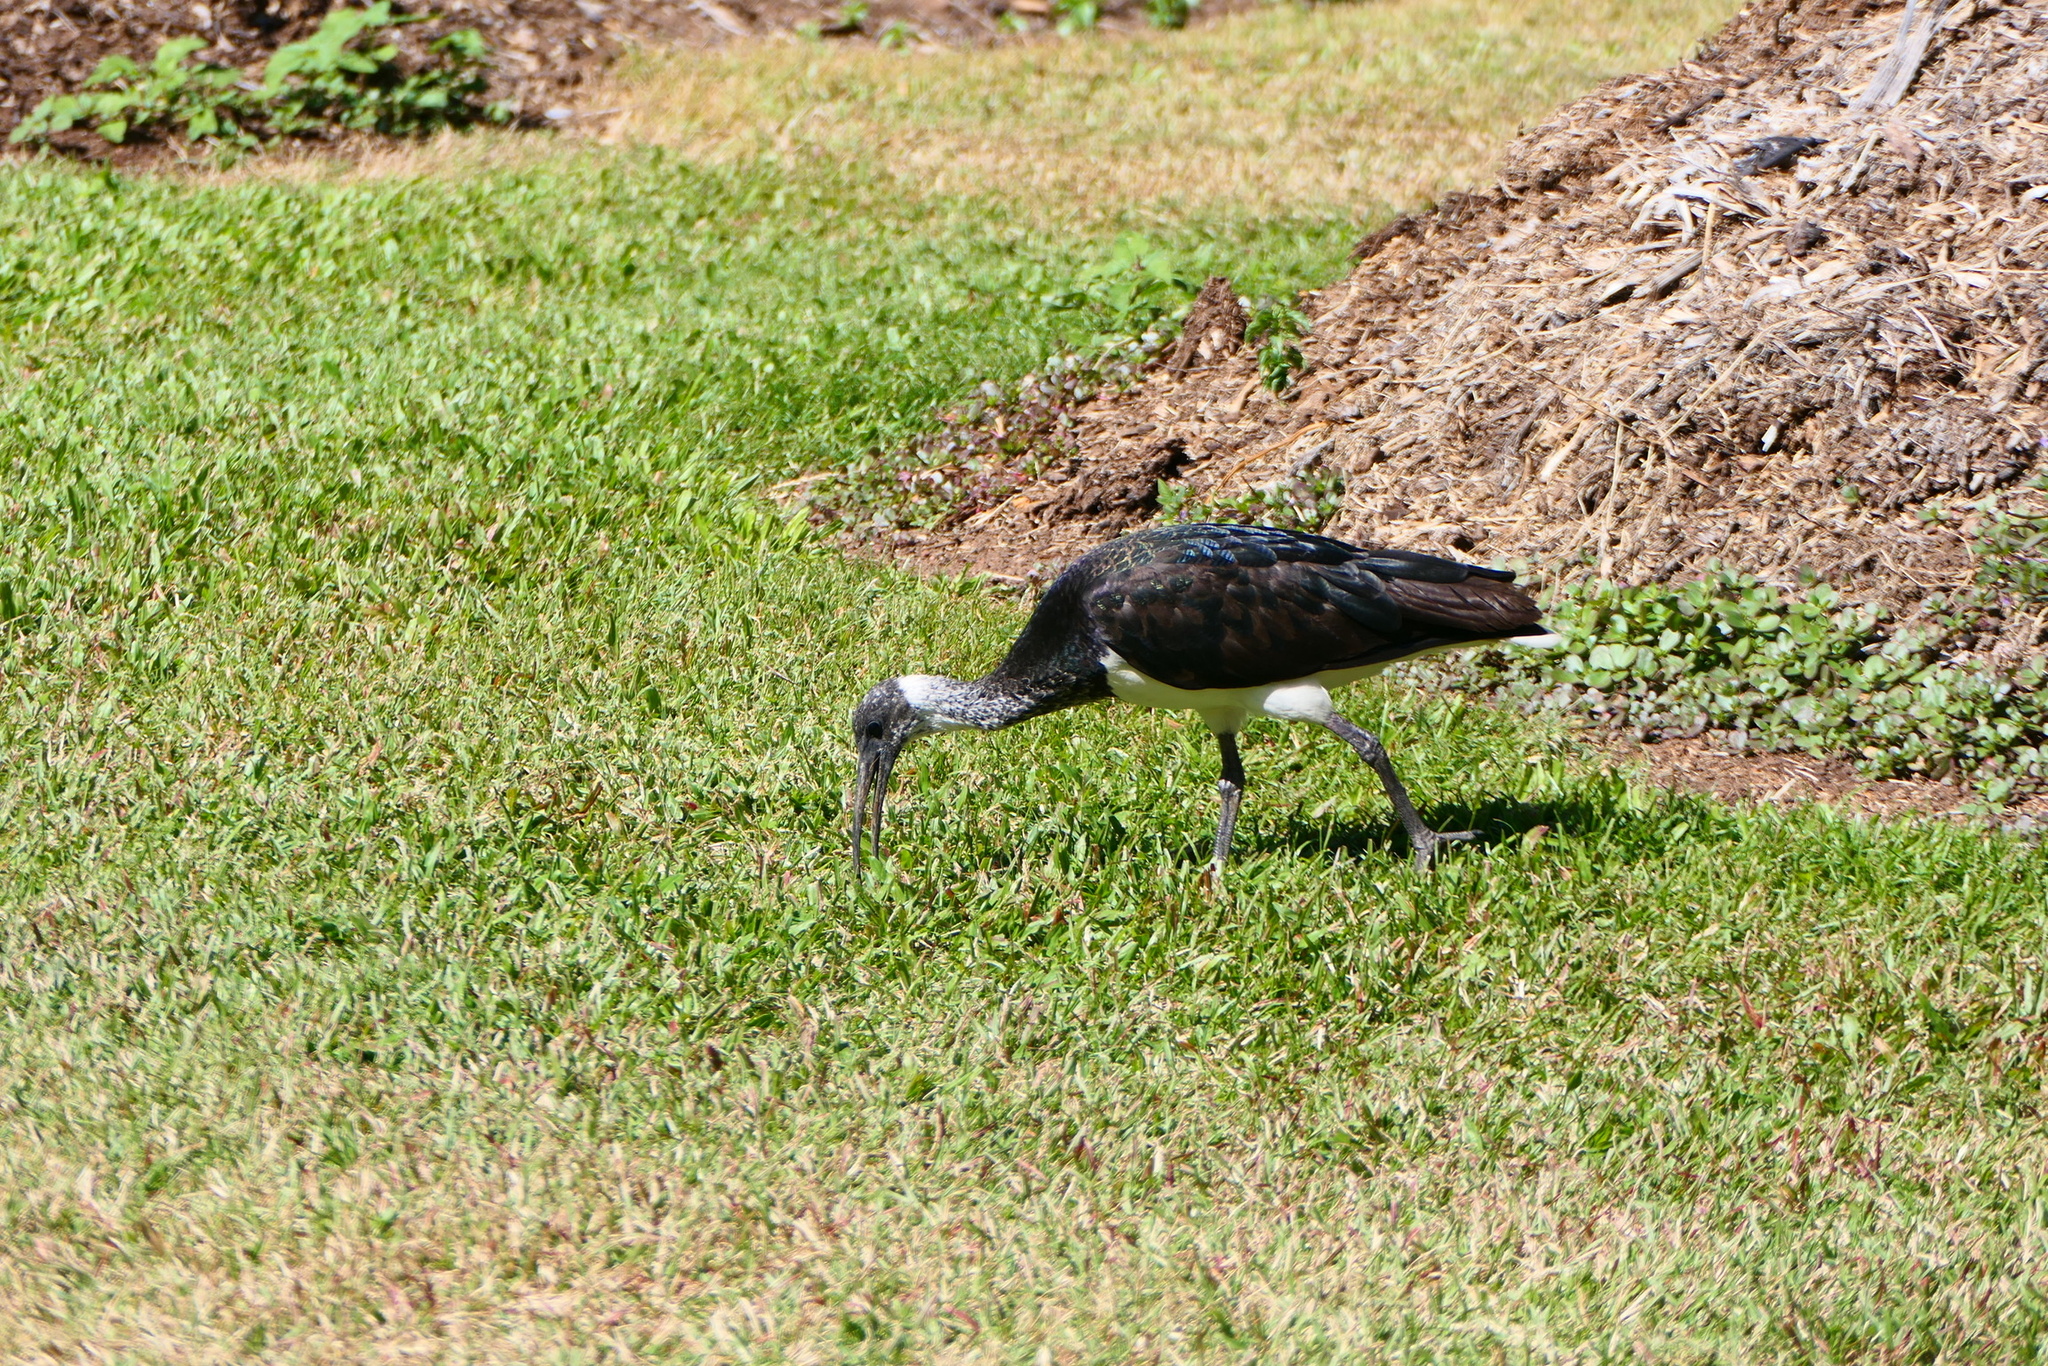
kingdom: Animalia
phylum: Chordata
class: Aves
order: Pelecaniformes
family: Threskiornithidae
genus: Threskiornis
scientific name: Threskiornis spinicollis
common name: Straw-necked ibis
